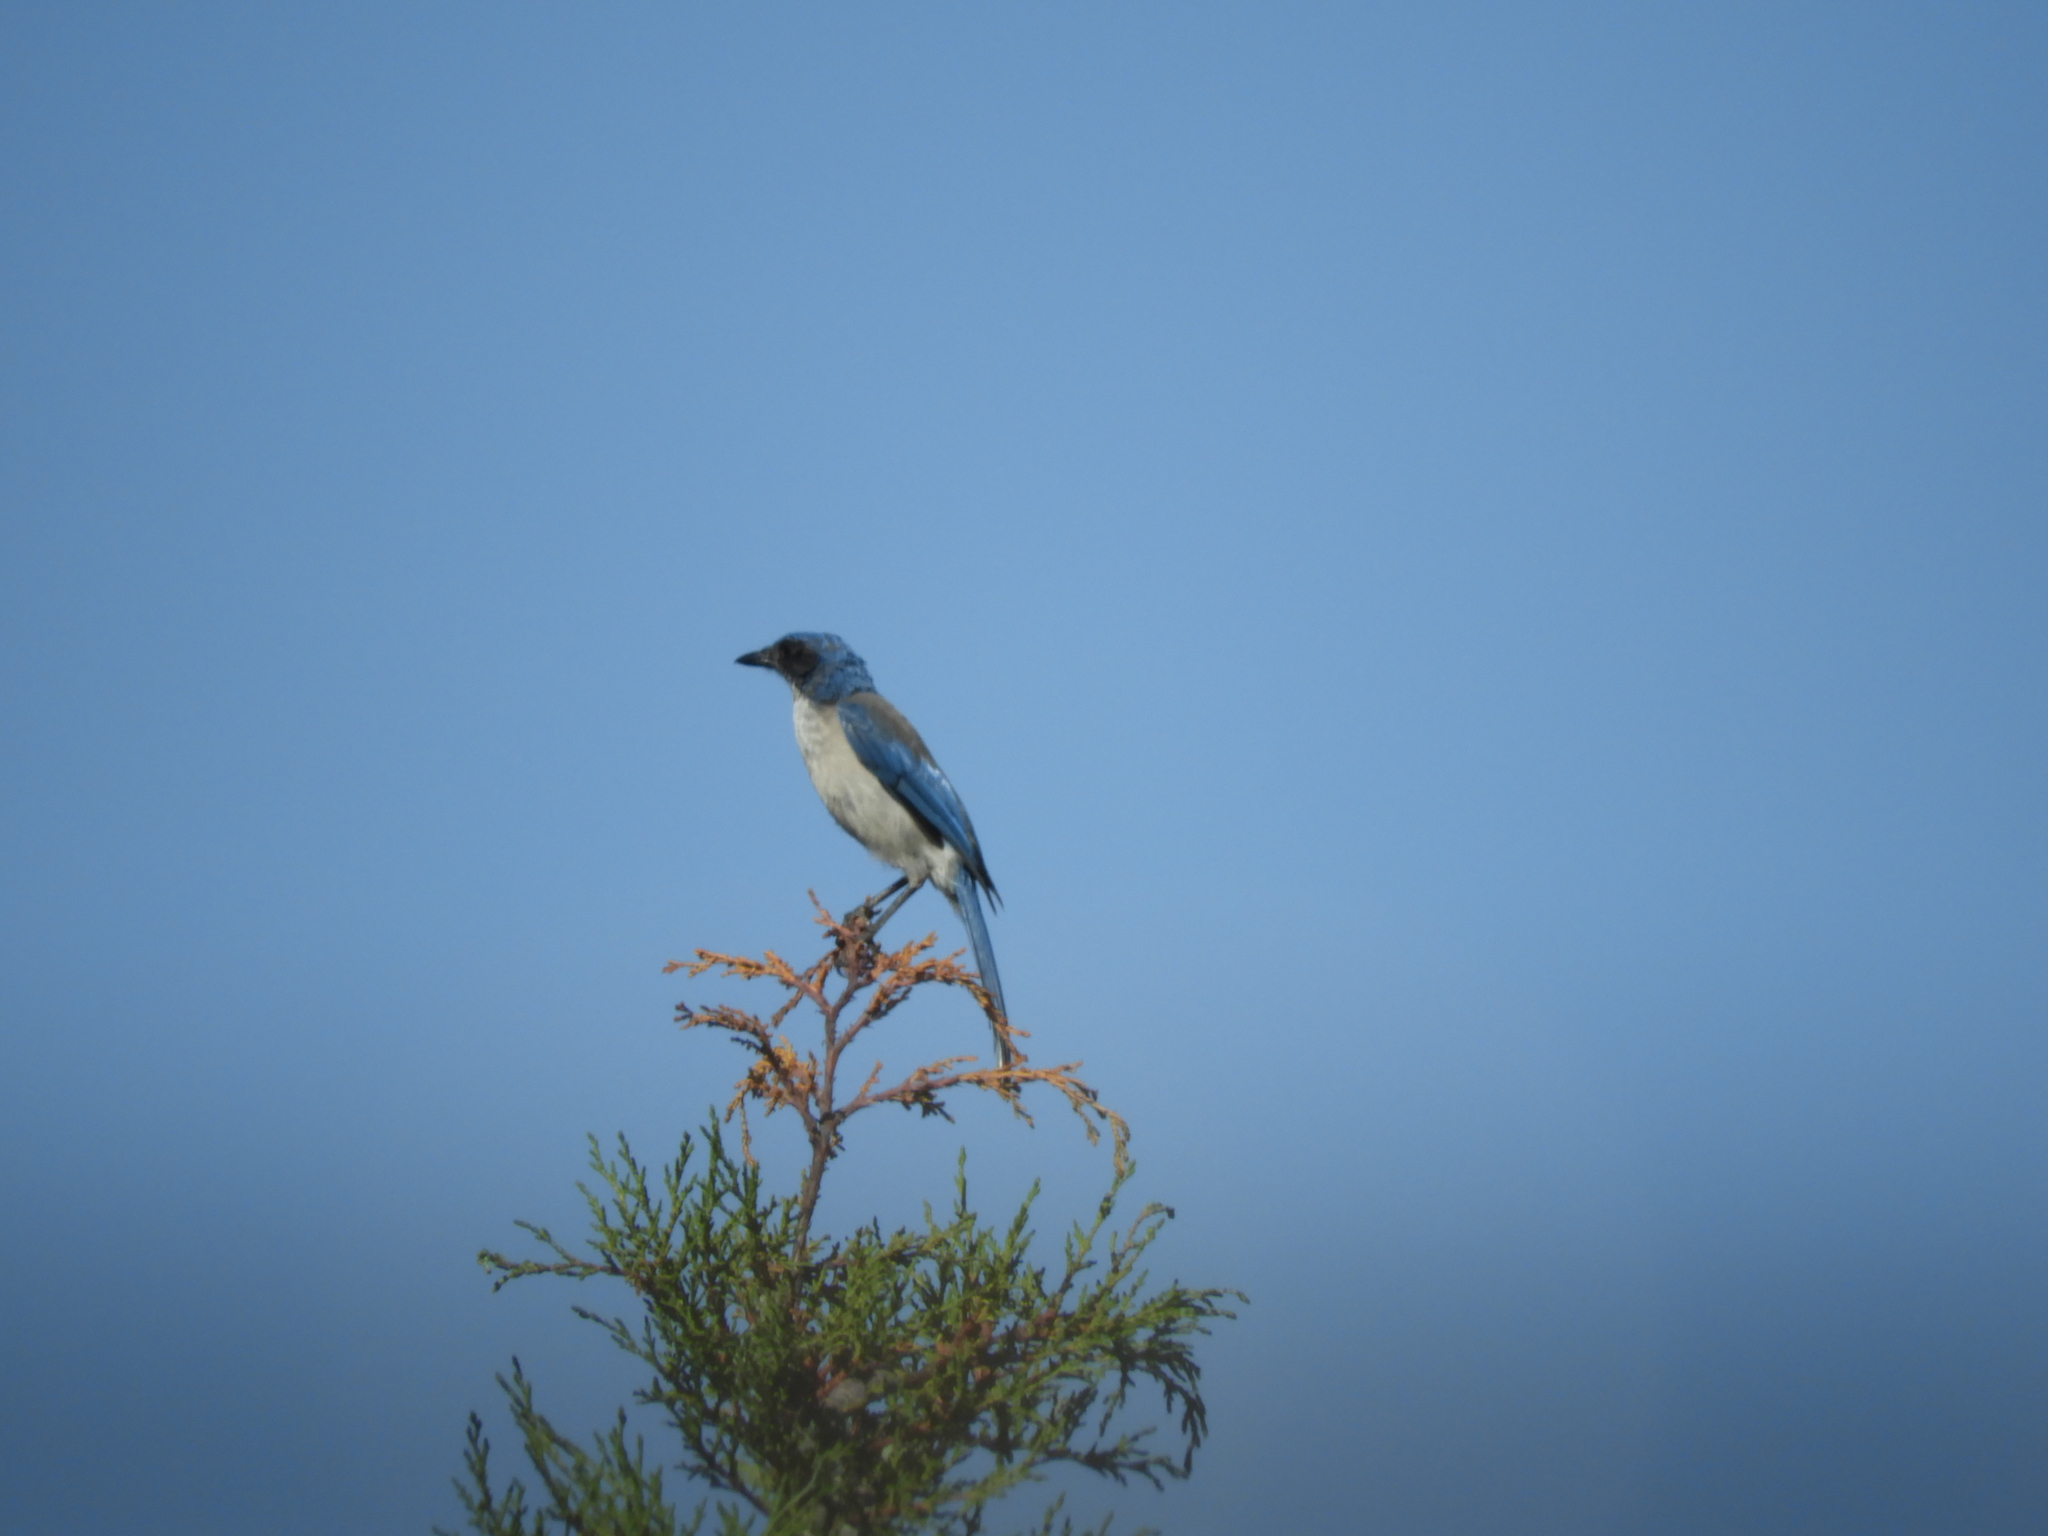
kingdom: Animalia
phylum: Chordata
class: Aves
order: Passeriformes
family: Corvidae
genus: Aphelocoma
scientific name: Aphelocoma woodhouseii
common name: Woodhouse's scrub-jay
